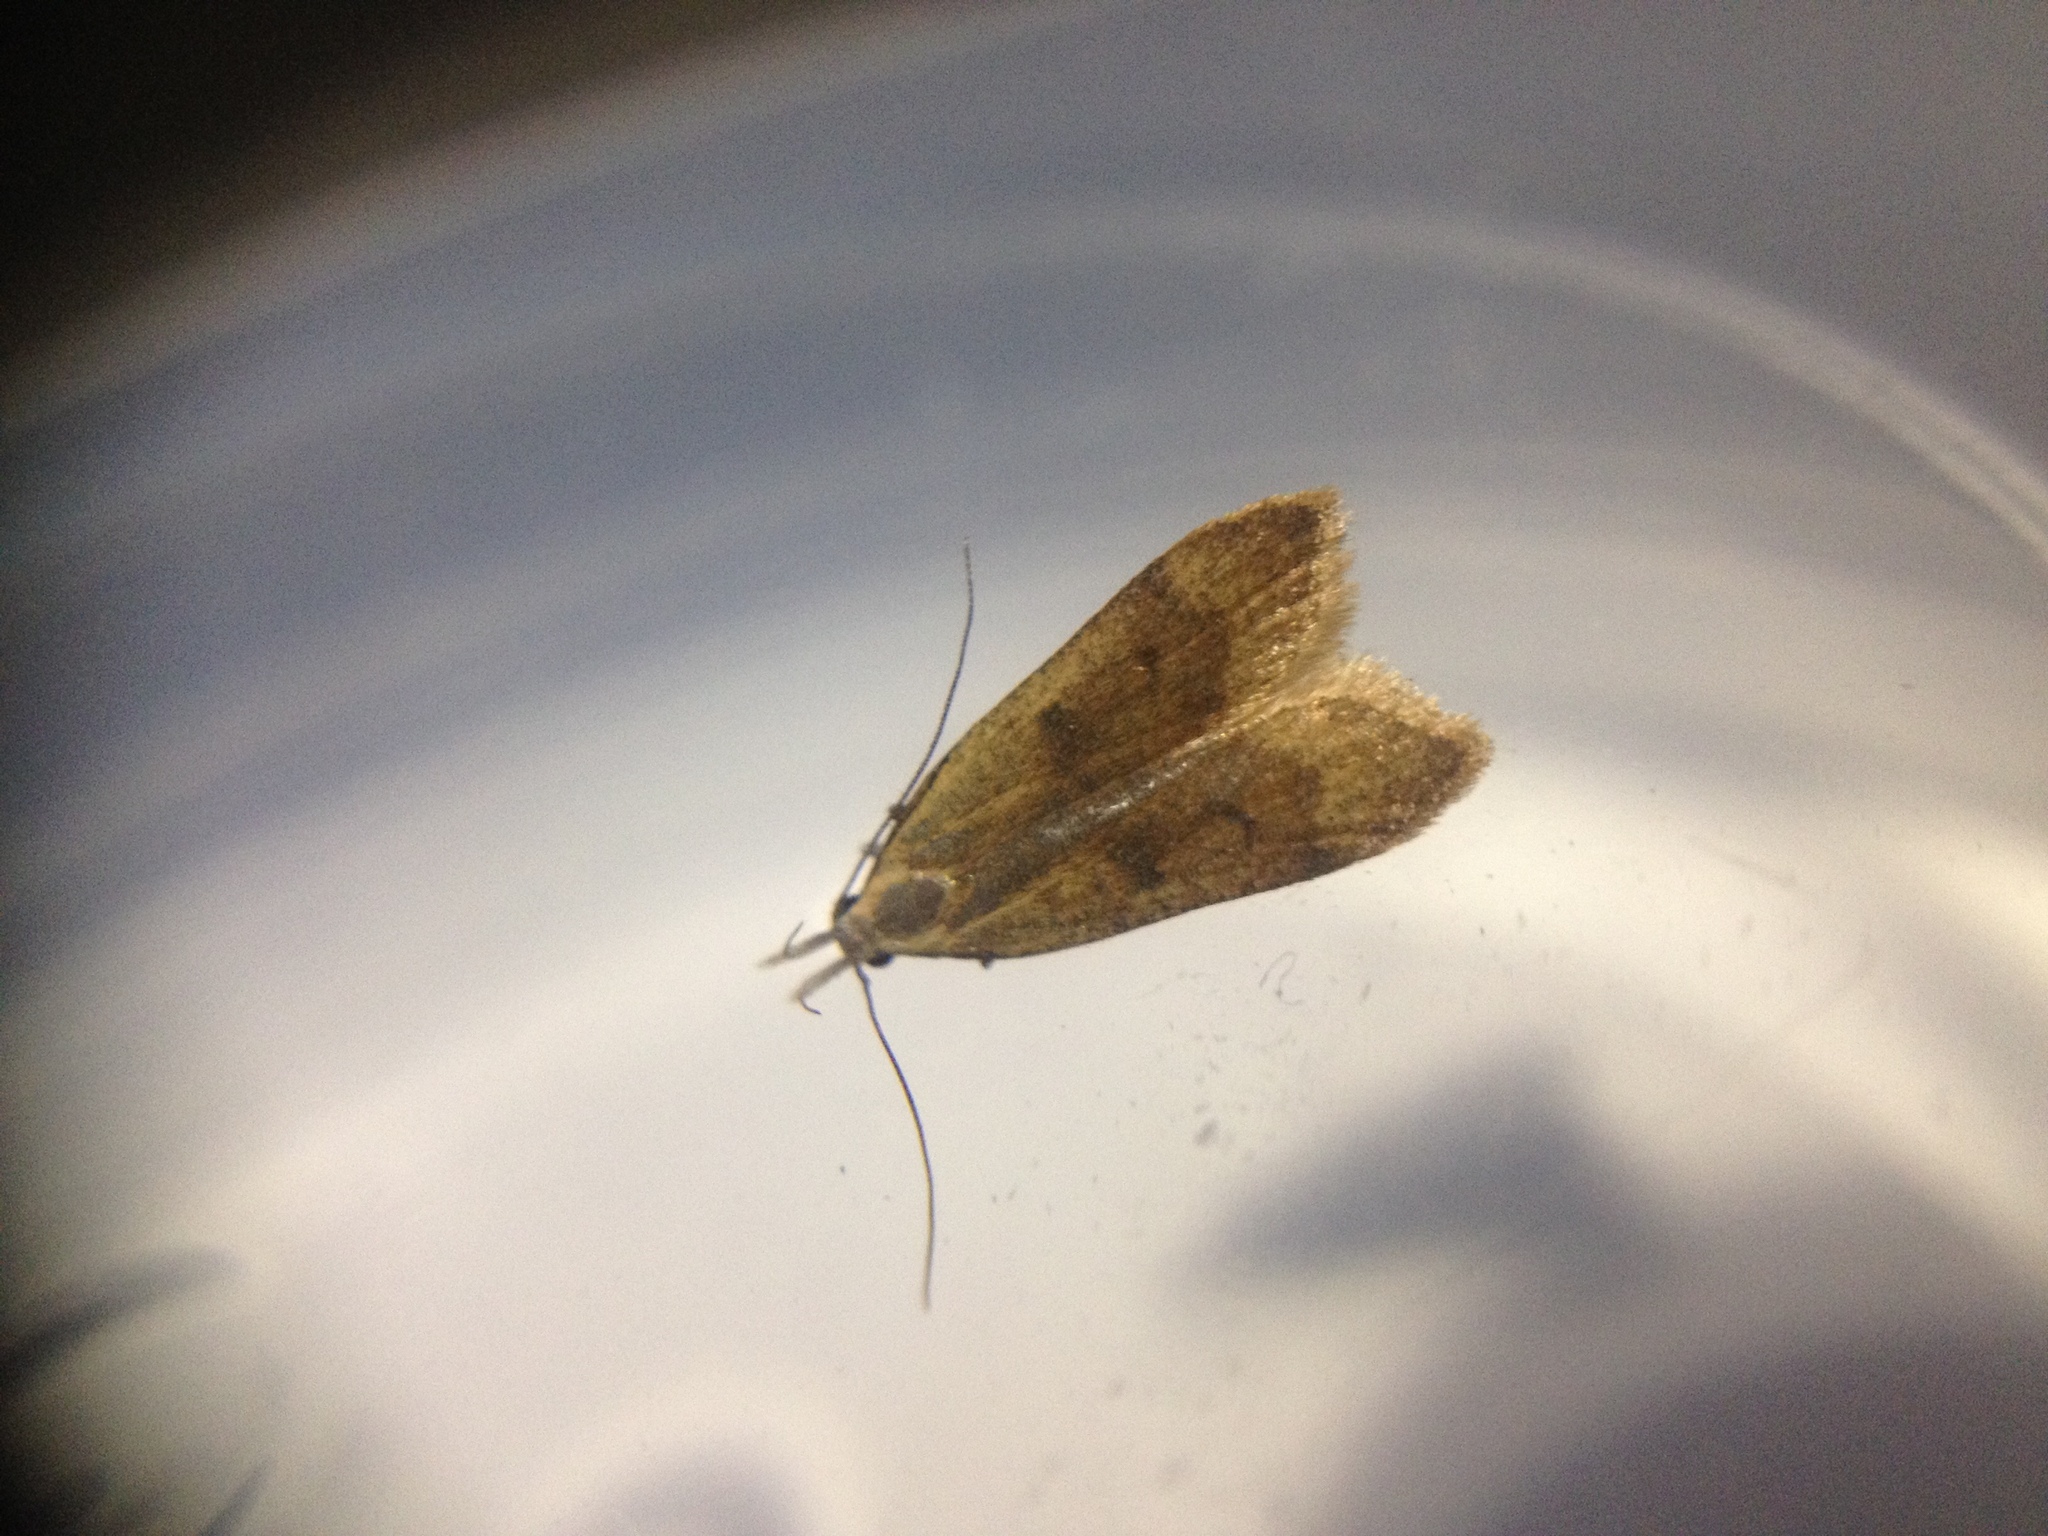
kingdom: Animalia
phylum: Arthropoda
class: Insecta
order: Lepidoptera
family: Gelechiidae
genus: Dichomeris
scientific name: Dichomeris derasella
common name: Blackthorn crest
